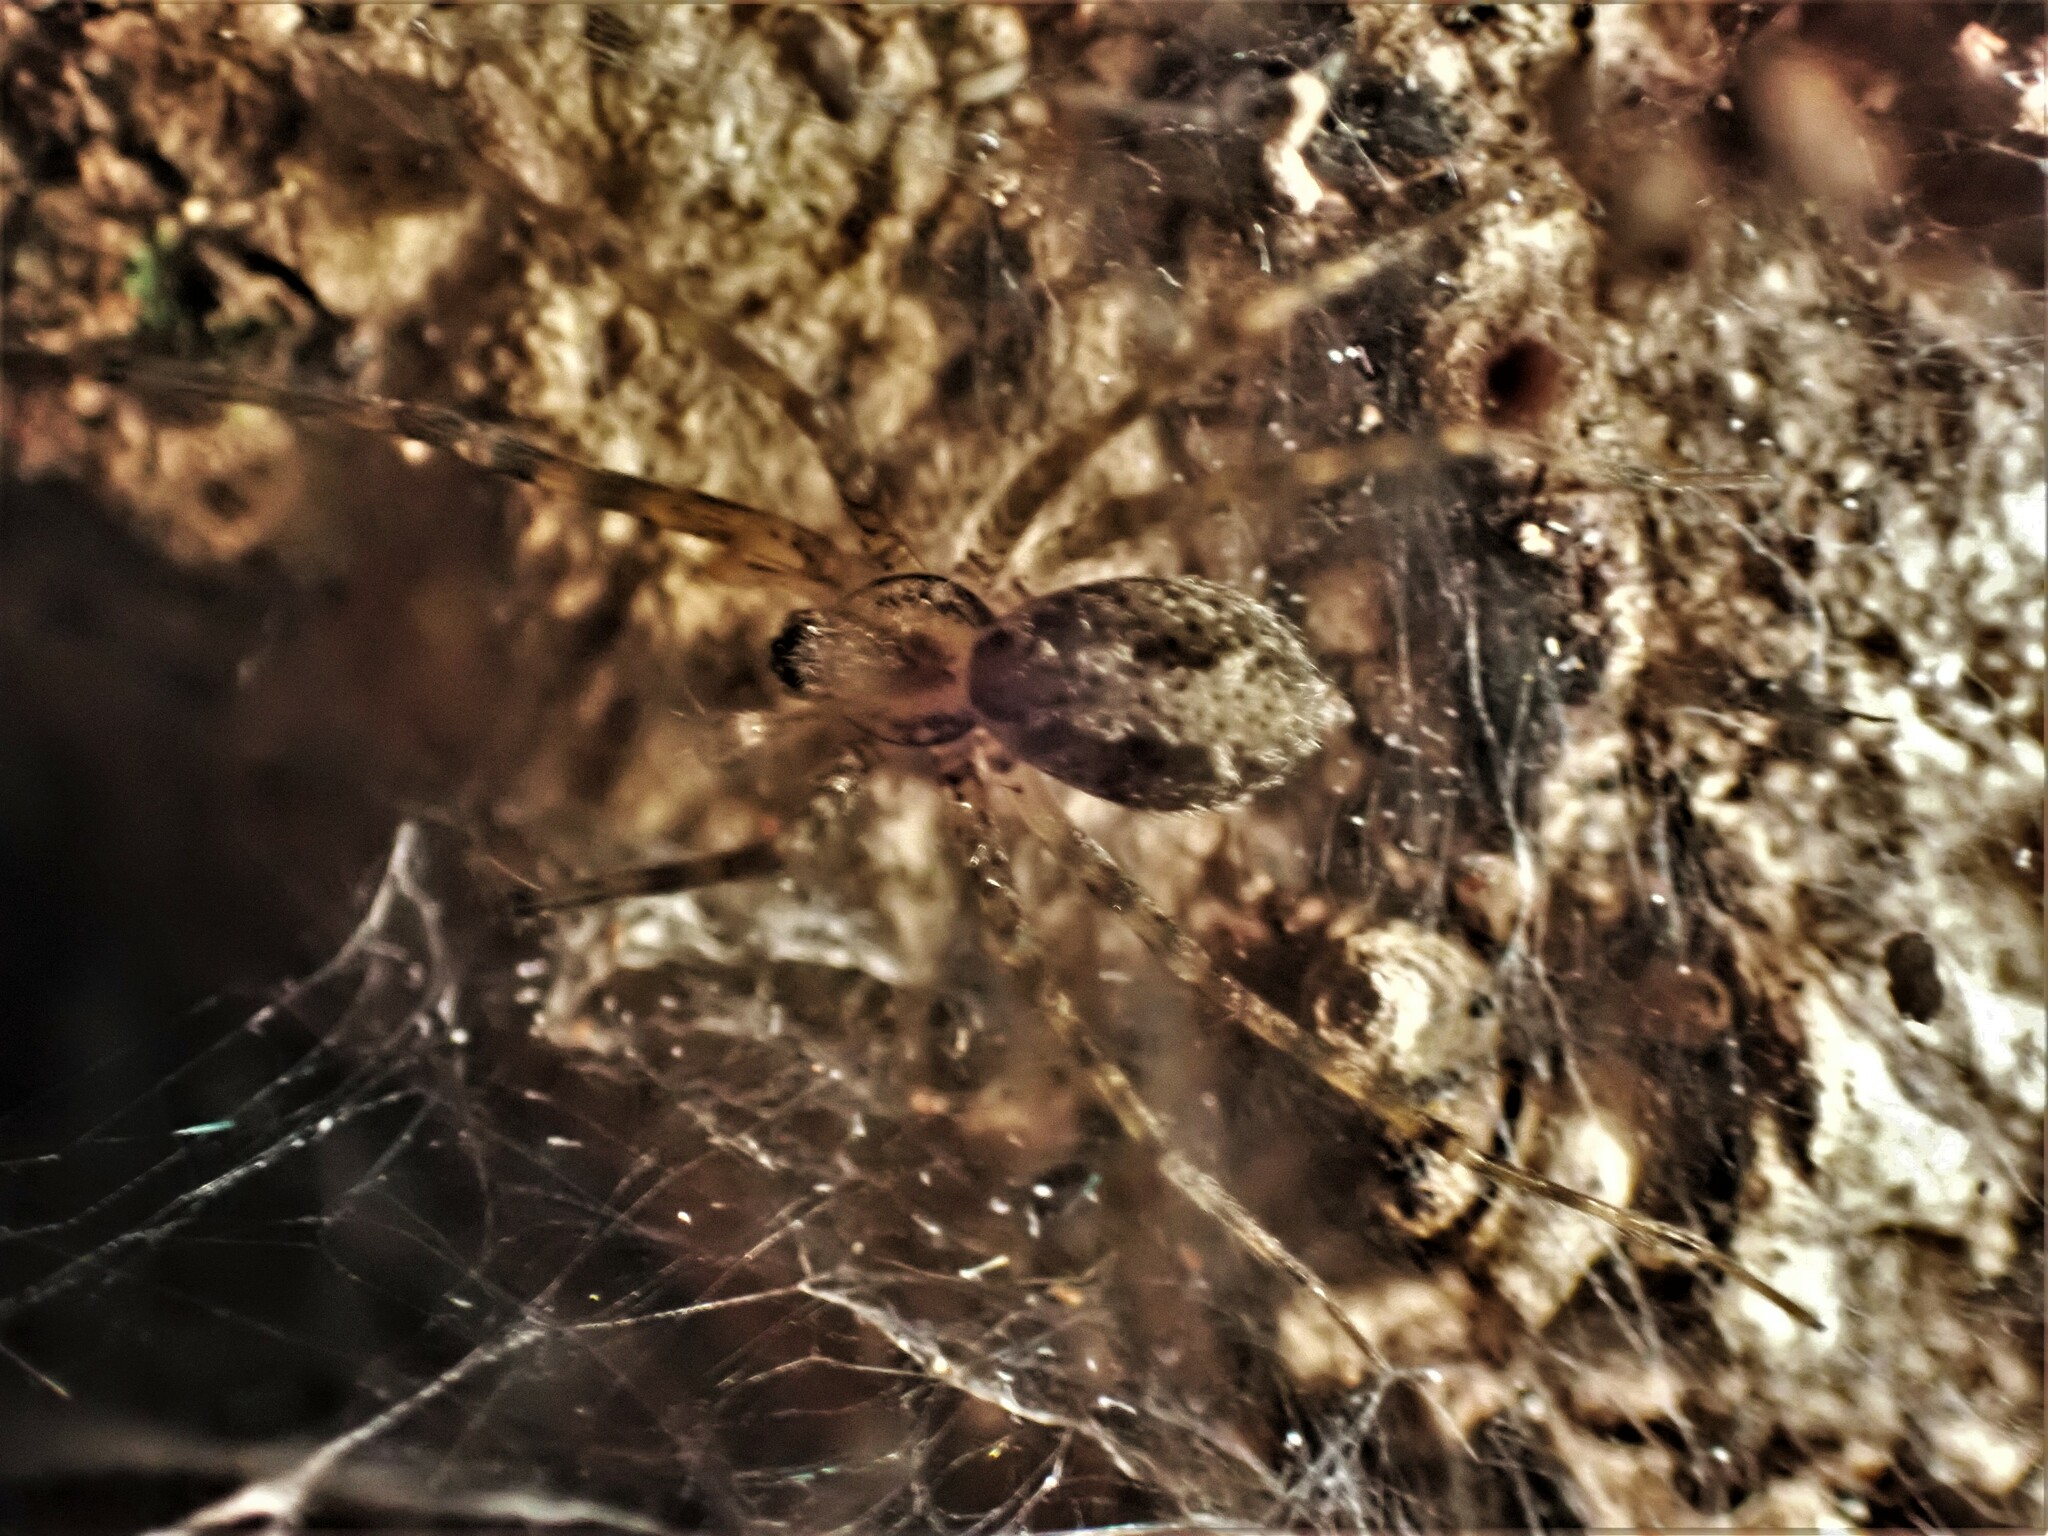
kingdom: Animalia
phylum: Arthropoda
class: Arachnida
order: Araneae
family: Stiphidiidae
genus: Stiphidion
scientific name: Stiphidion facetum
